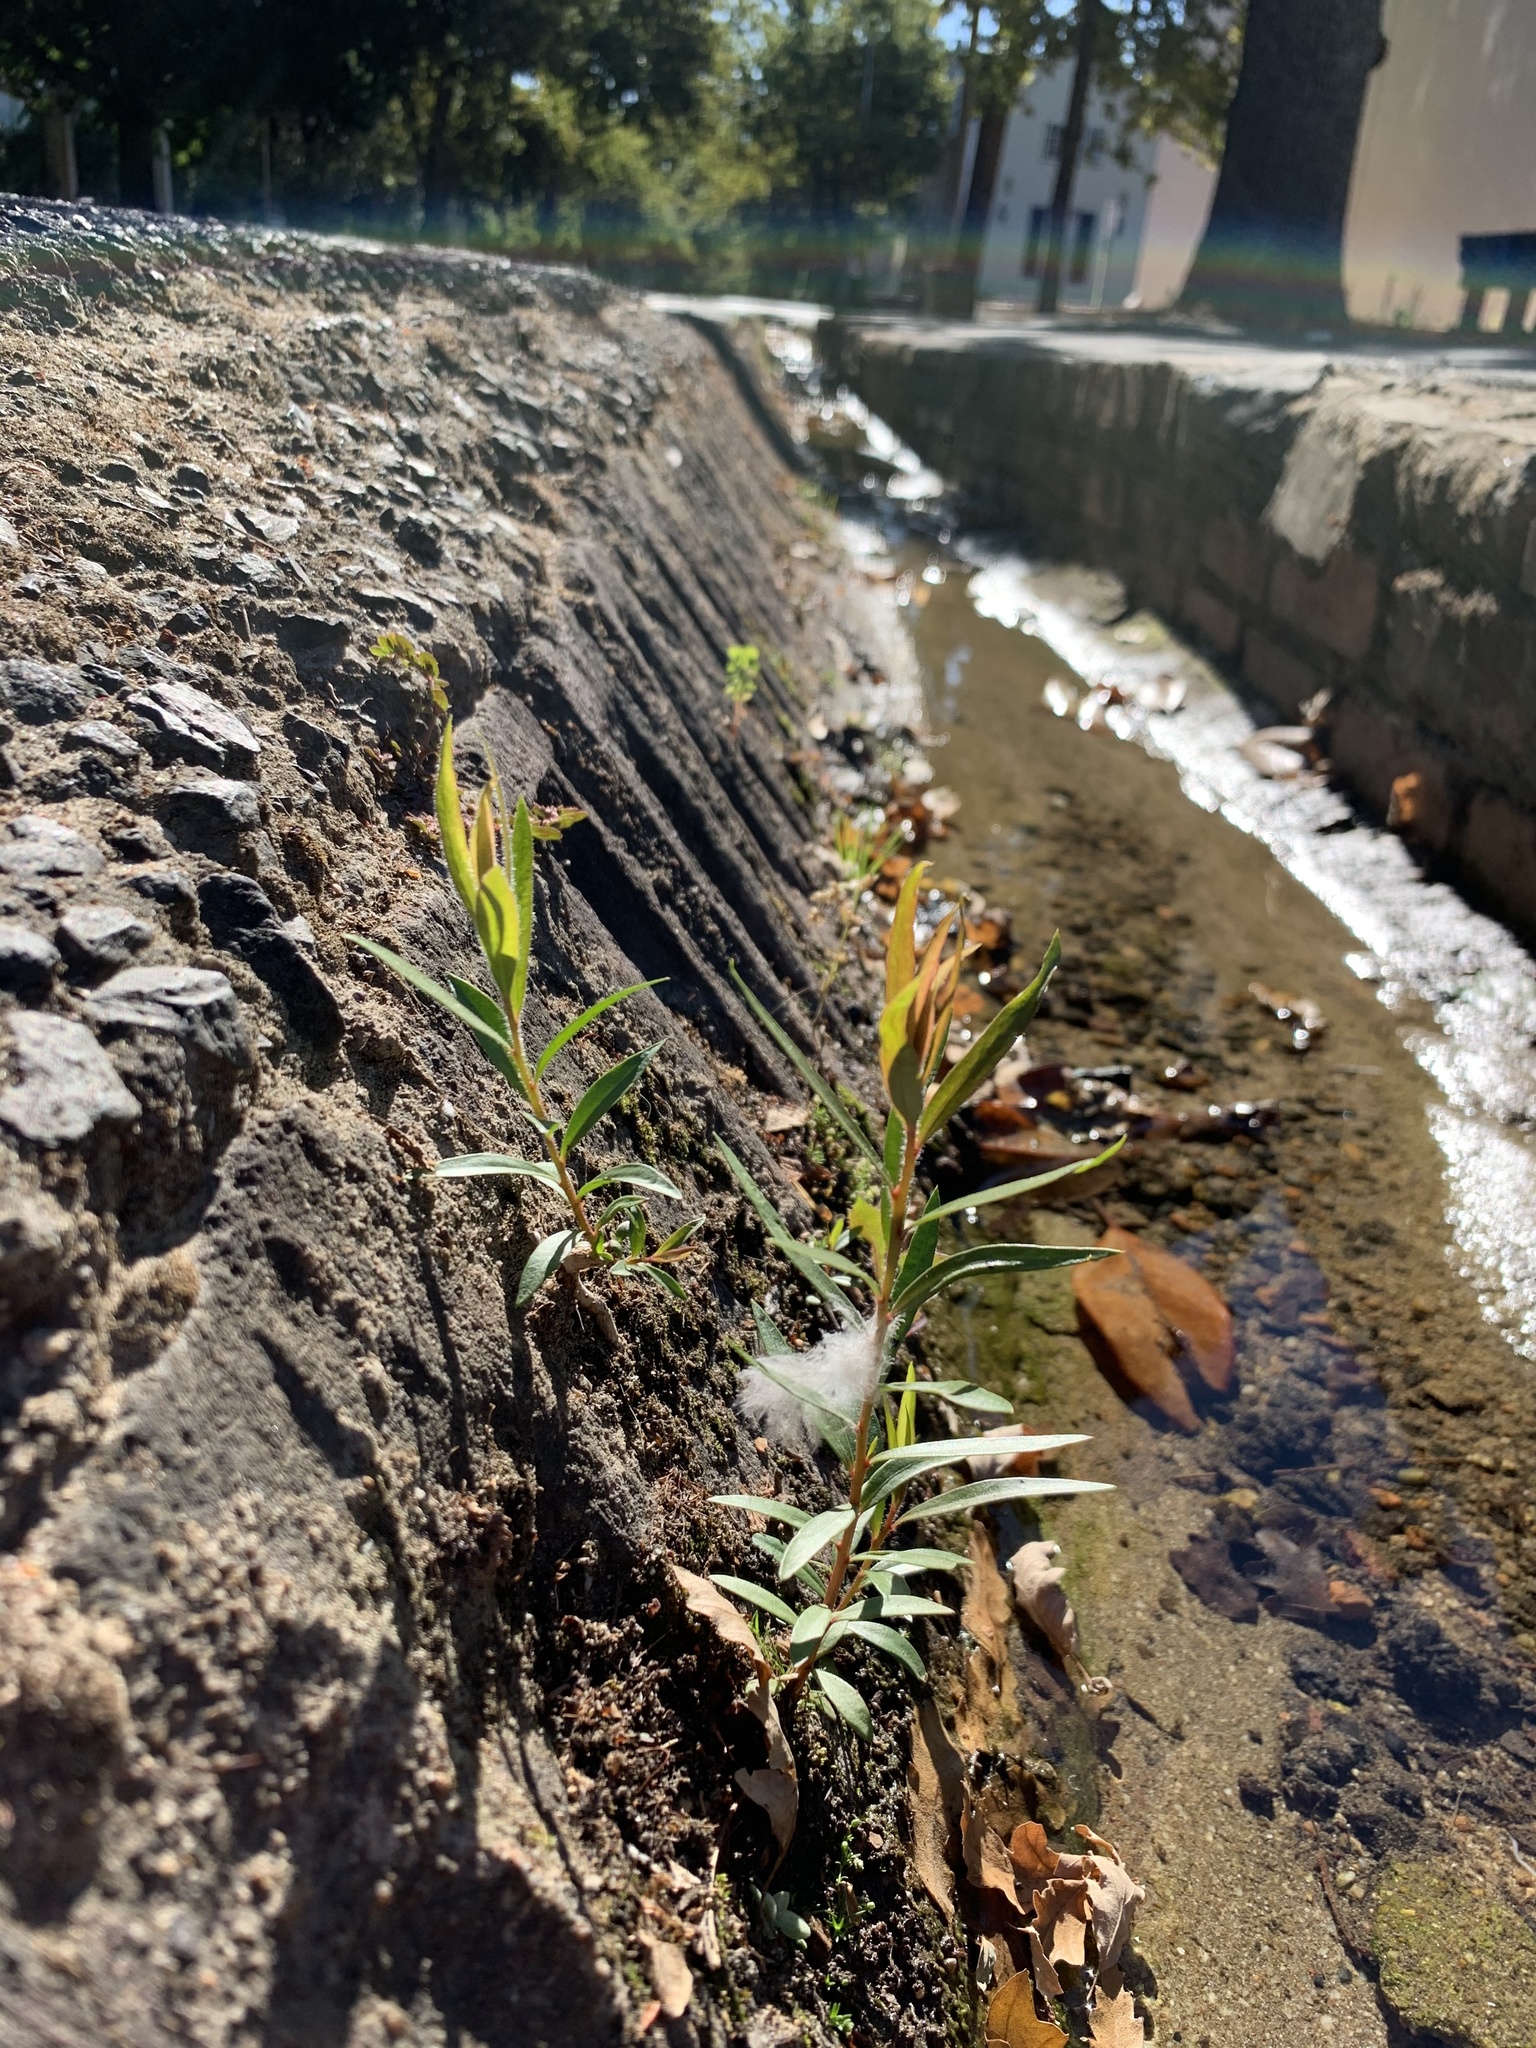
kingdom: Plantae
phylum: Tracheophyta
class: Magnoliopsida
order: Myrtales
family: Myrtaceae
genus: Callistemon
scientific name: Callistemon viminalis
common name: Drooping bottlebrush
